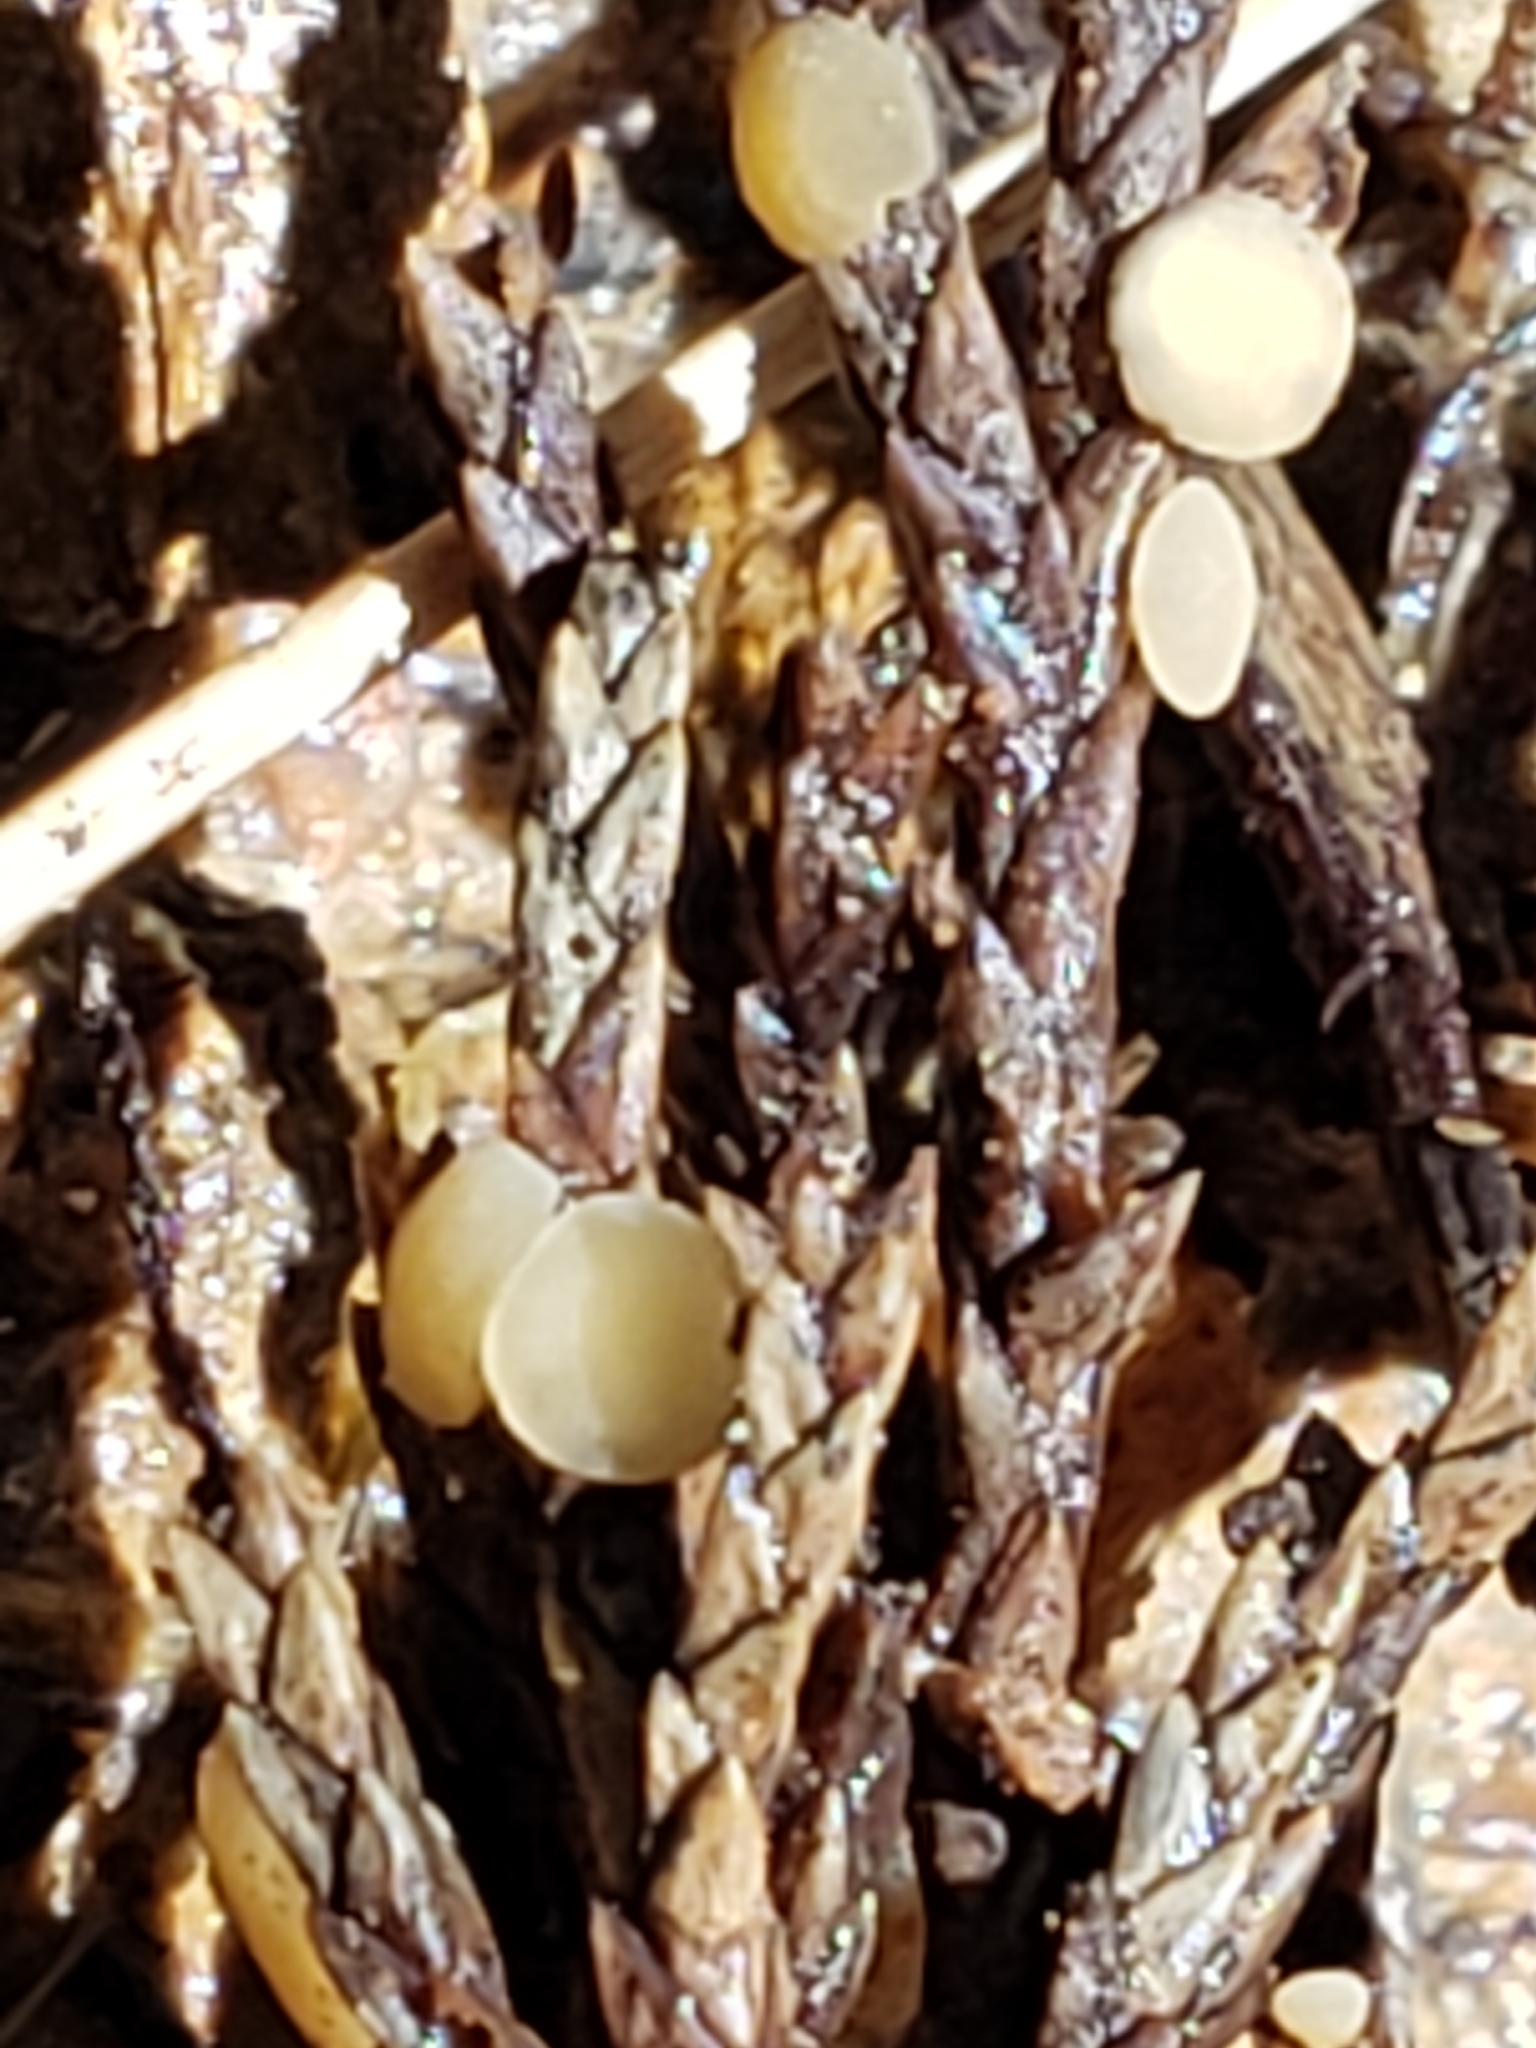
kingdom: Fungi
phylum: Ascomycota
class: Pezizomycetes
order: Pezizales
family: Sarcoscyphaceae
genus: Pithya
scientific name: Pithya cupressina
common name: Juniper disco
